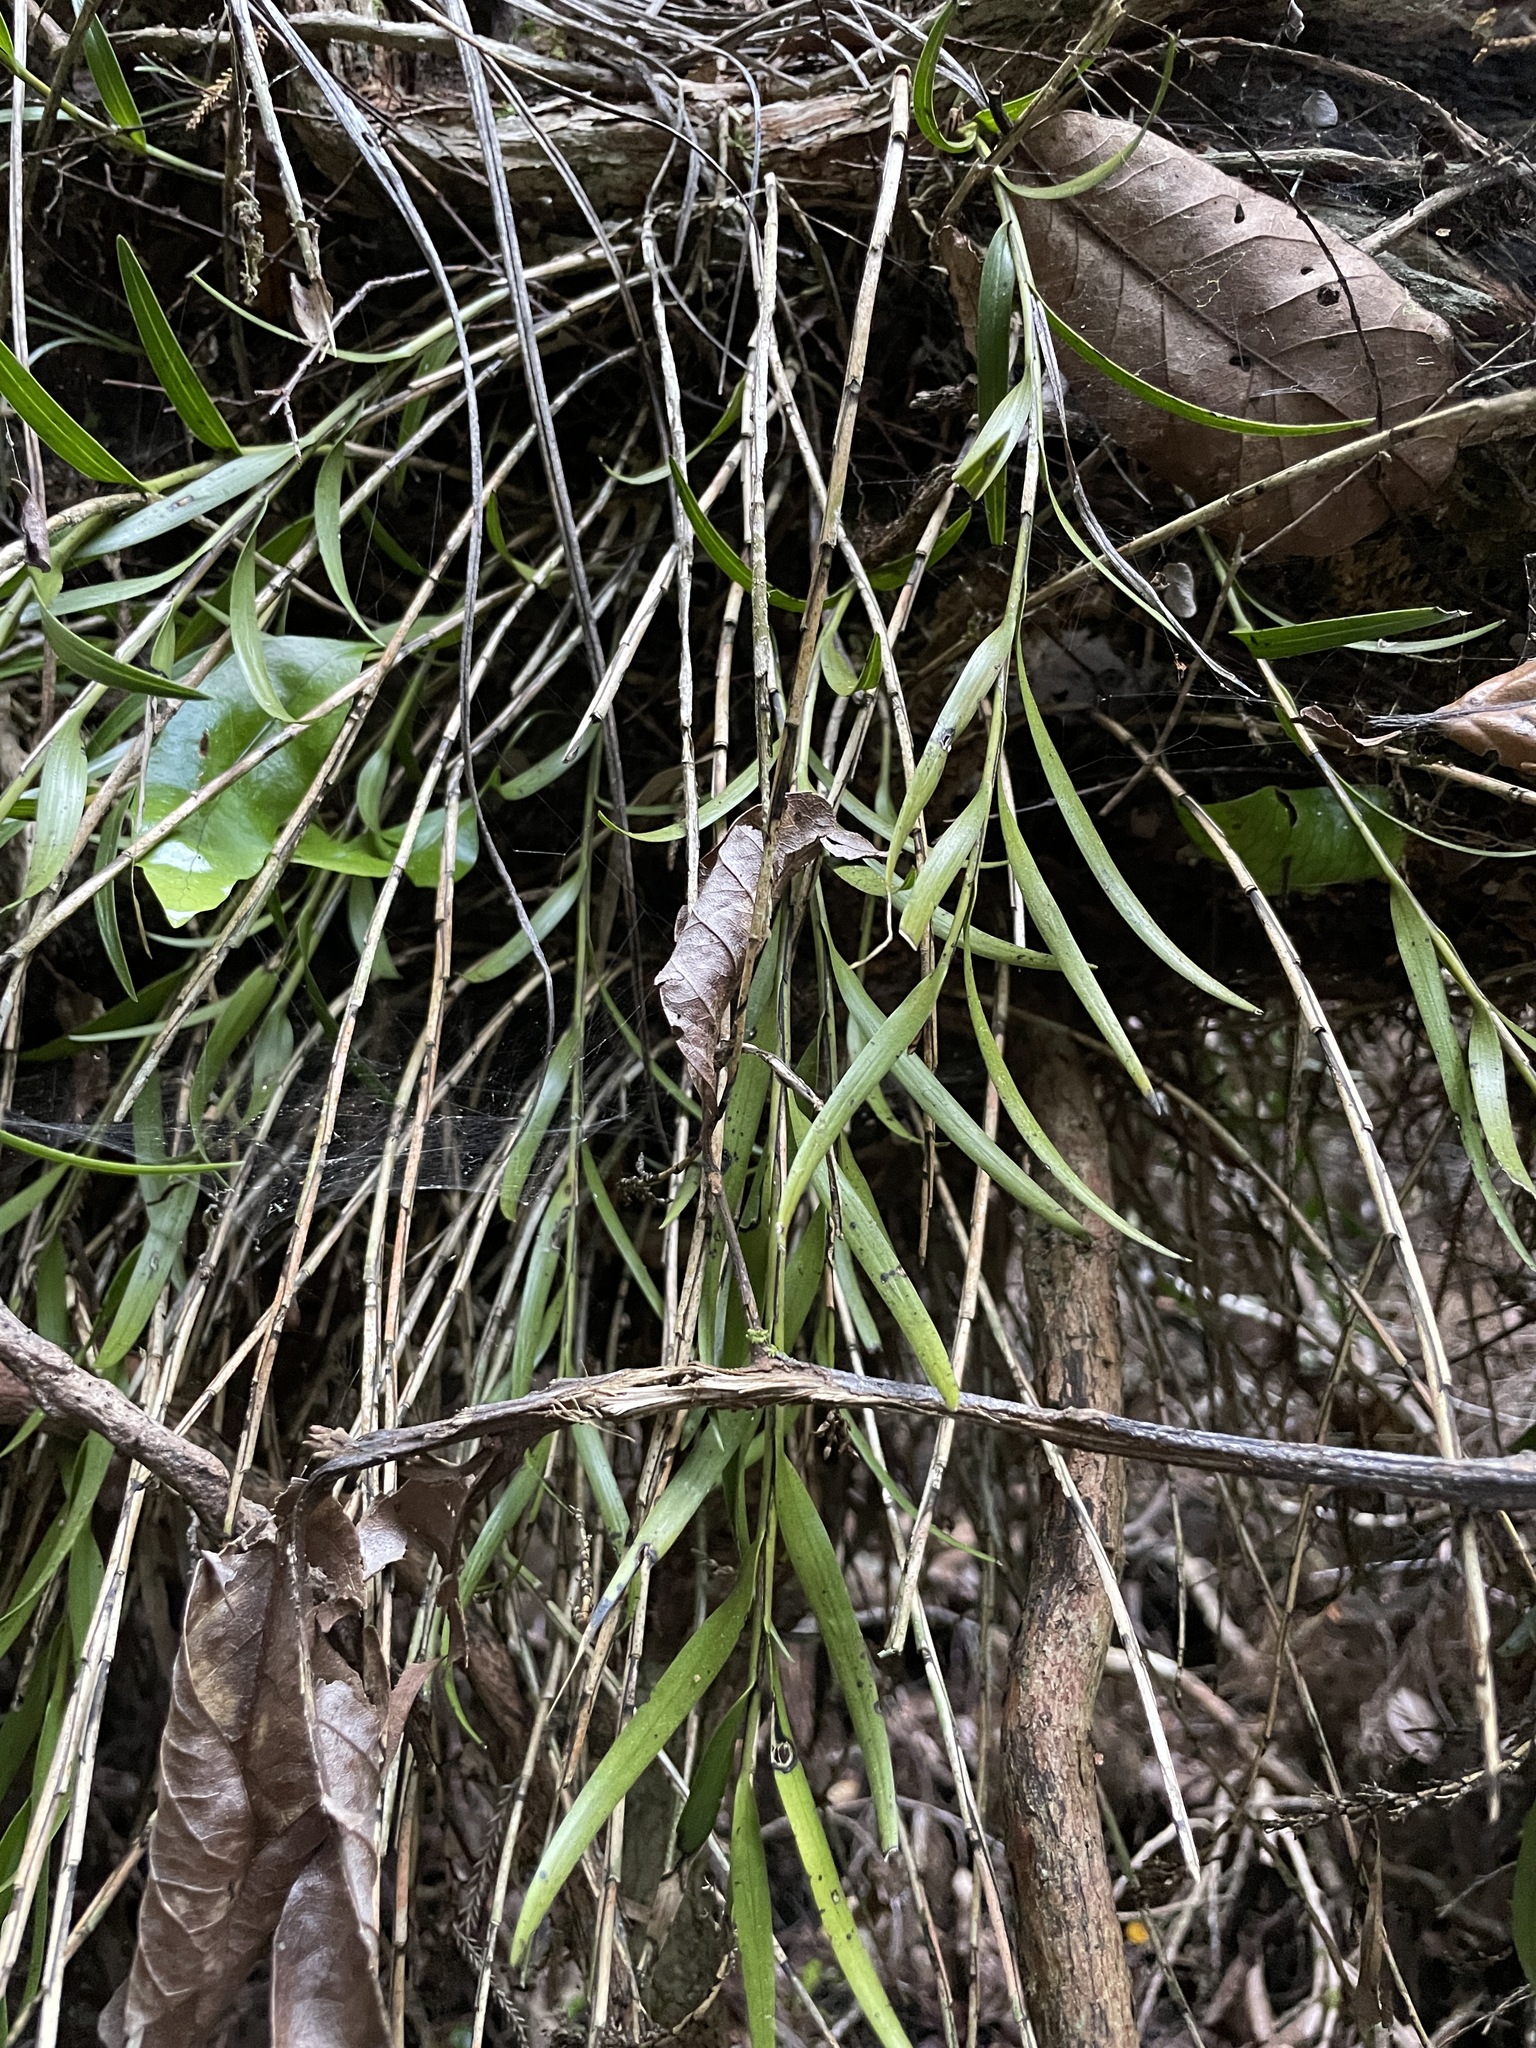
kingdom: Plantae
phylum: Tracheophyta
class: Liliopsida
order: Asparagales
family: Orchidaceae
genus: Earina
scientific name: Earina autumnalis
